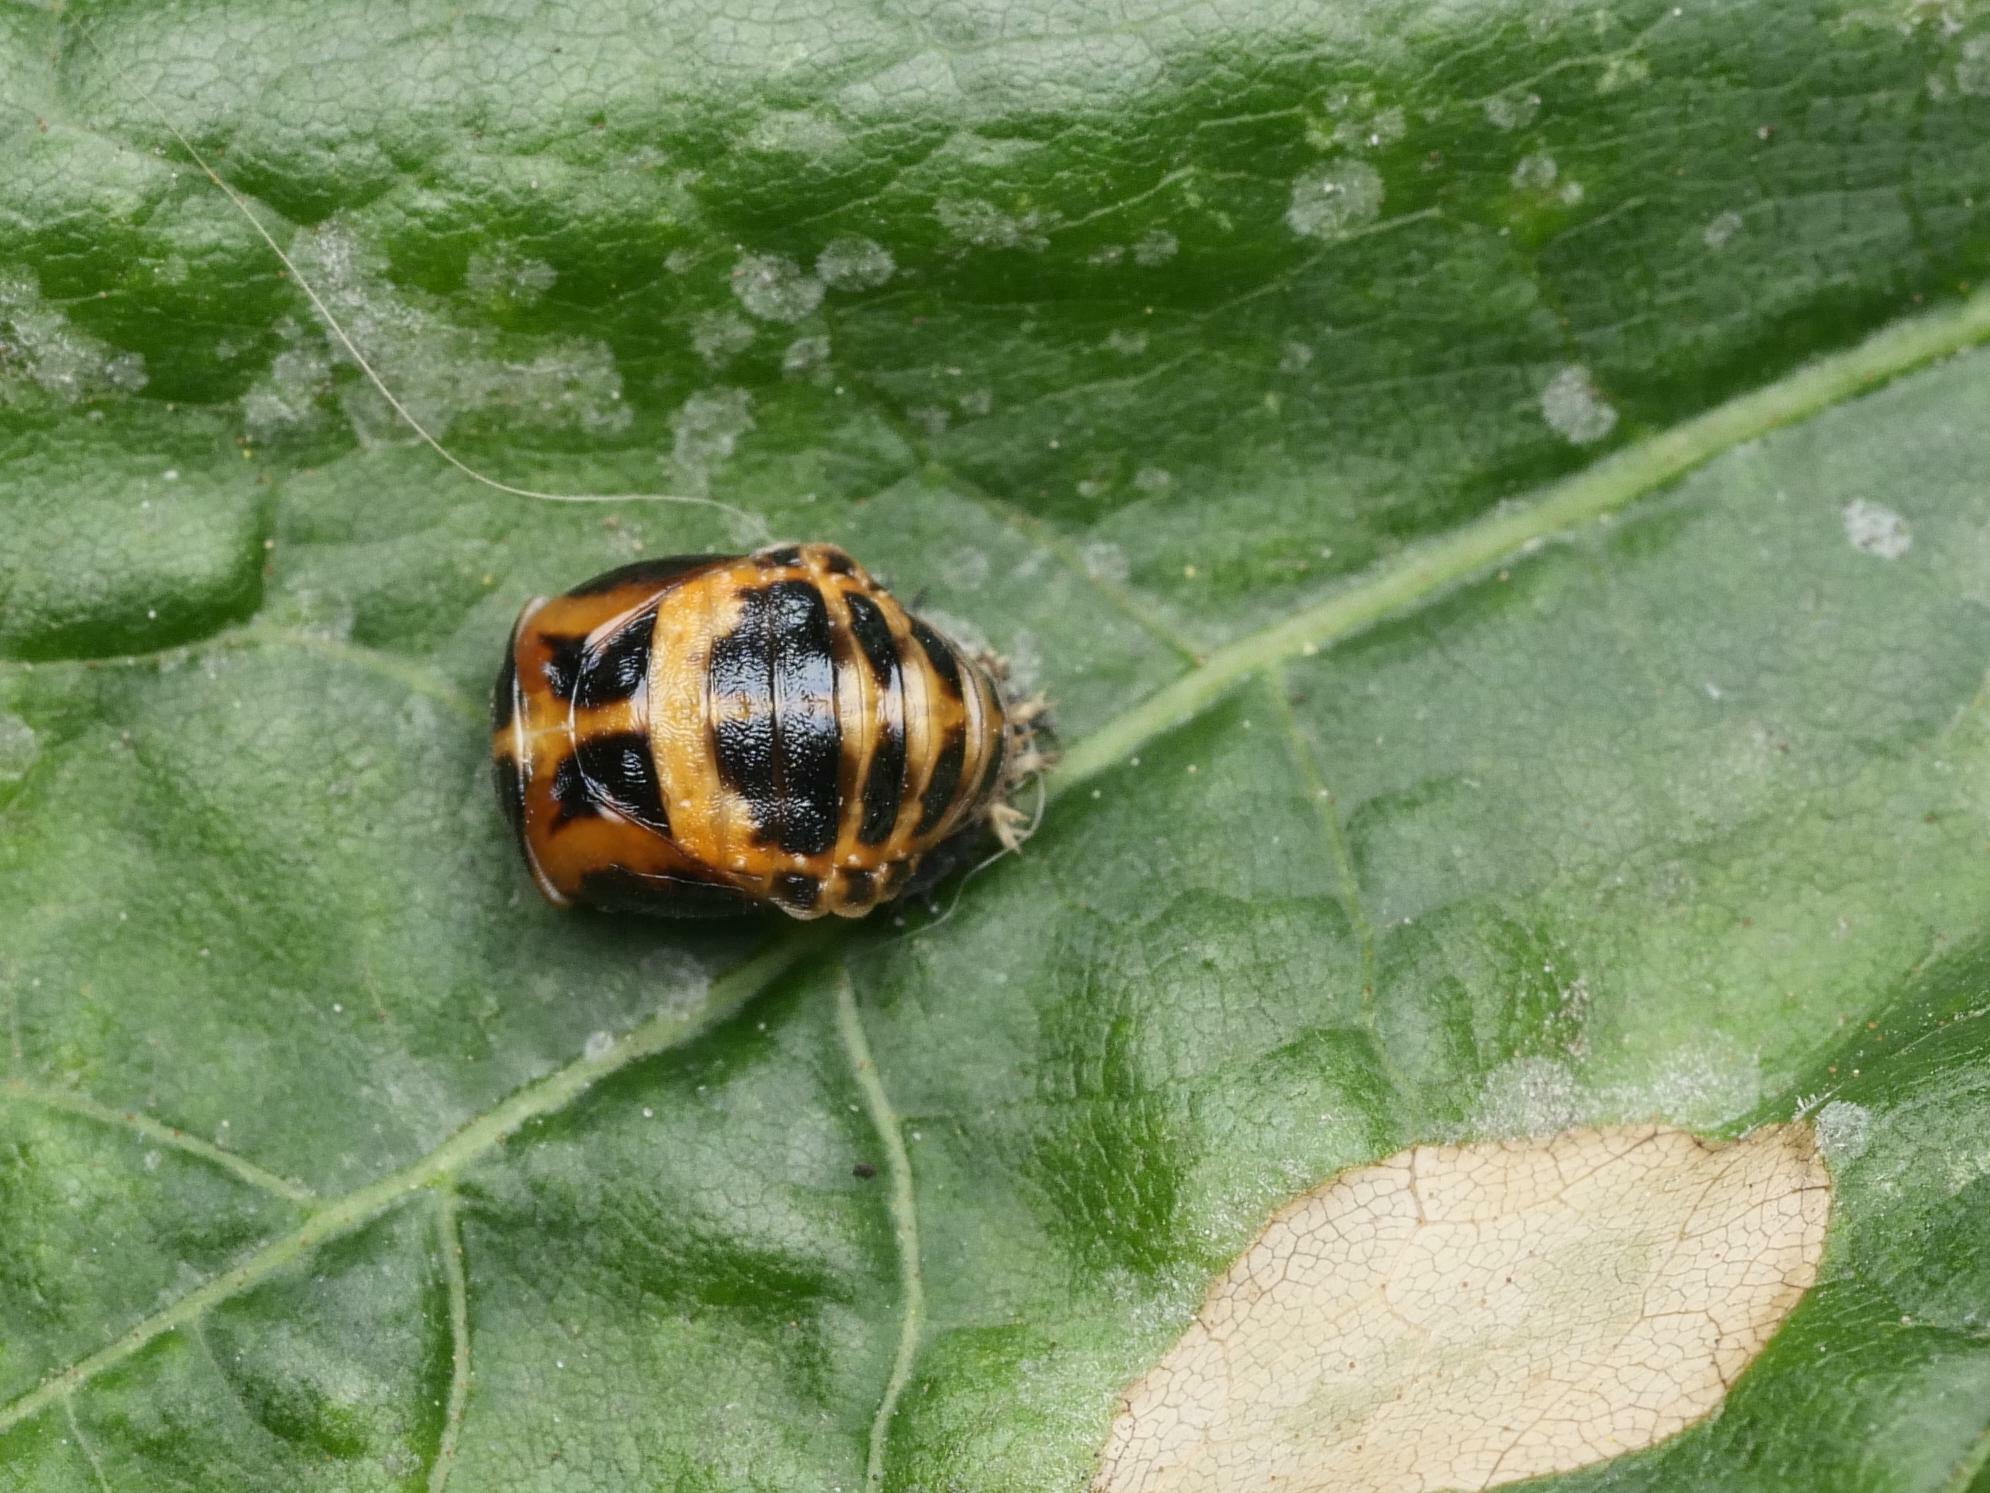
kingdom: Animalia
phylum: Arthropoda
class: Insecta
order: Coleoptera
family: Coccinellidae
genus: Harmonia
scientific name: Harmonia axyridis
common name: Harlequin ladybird
